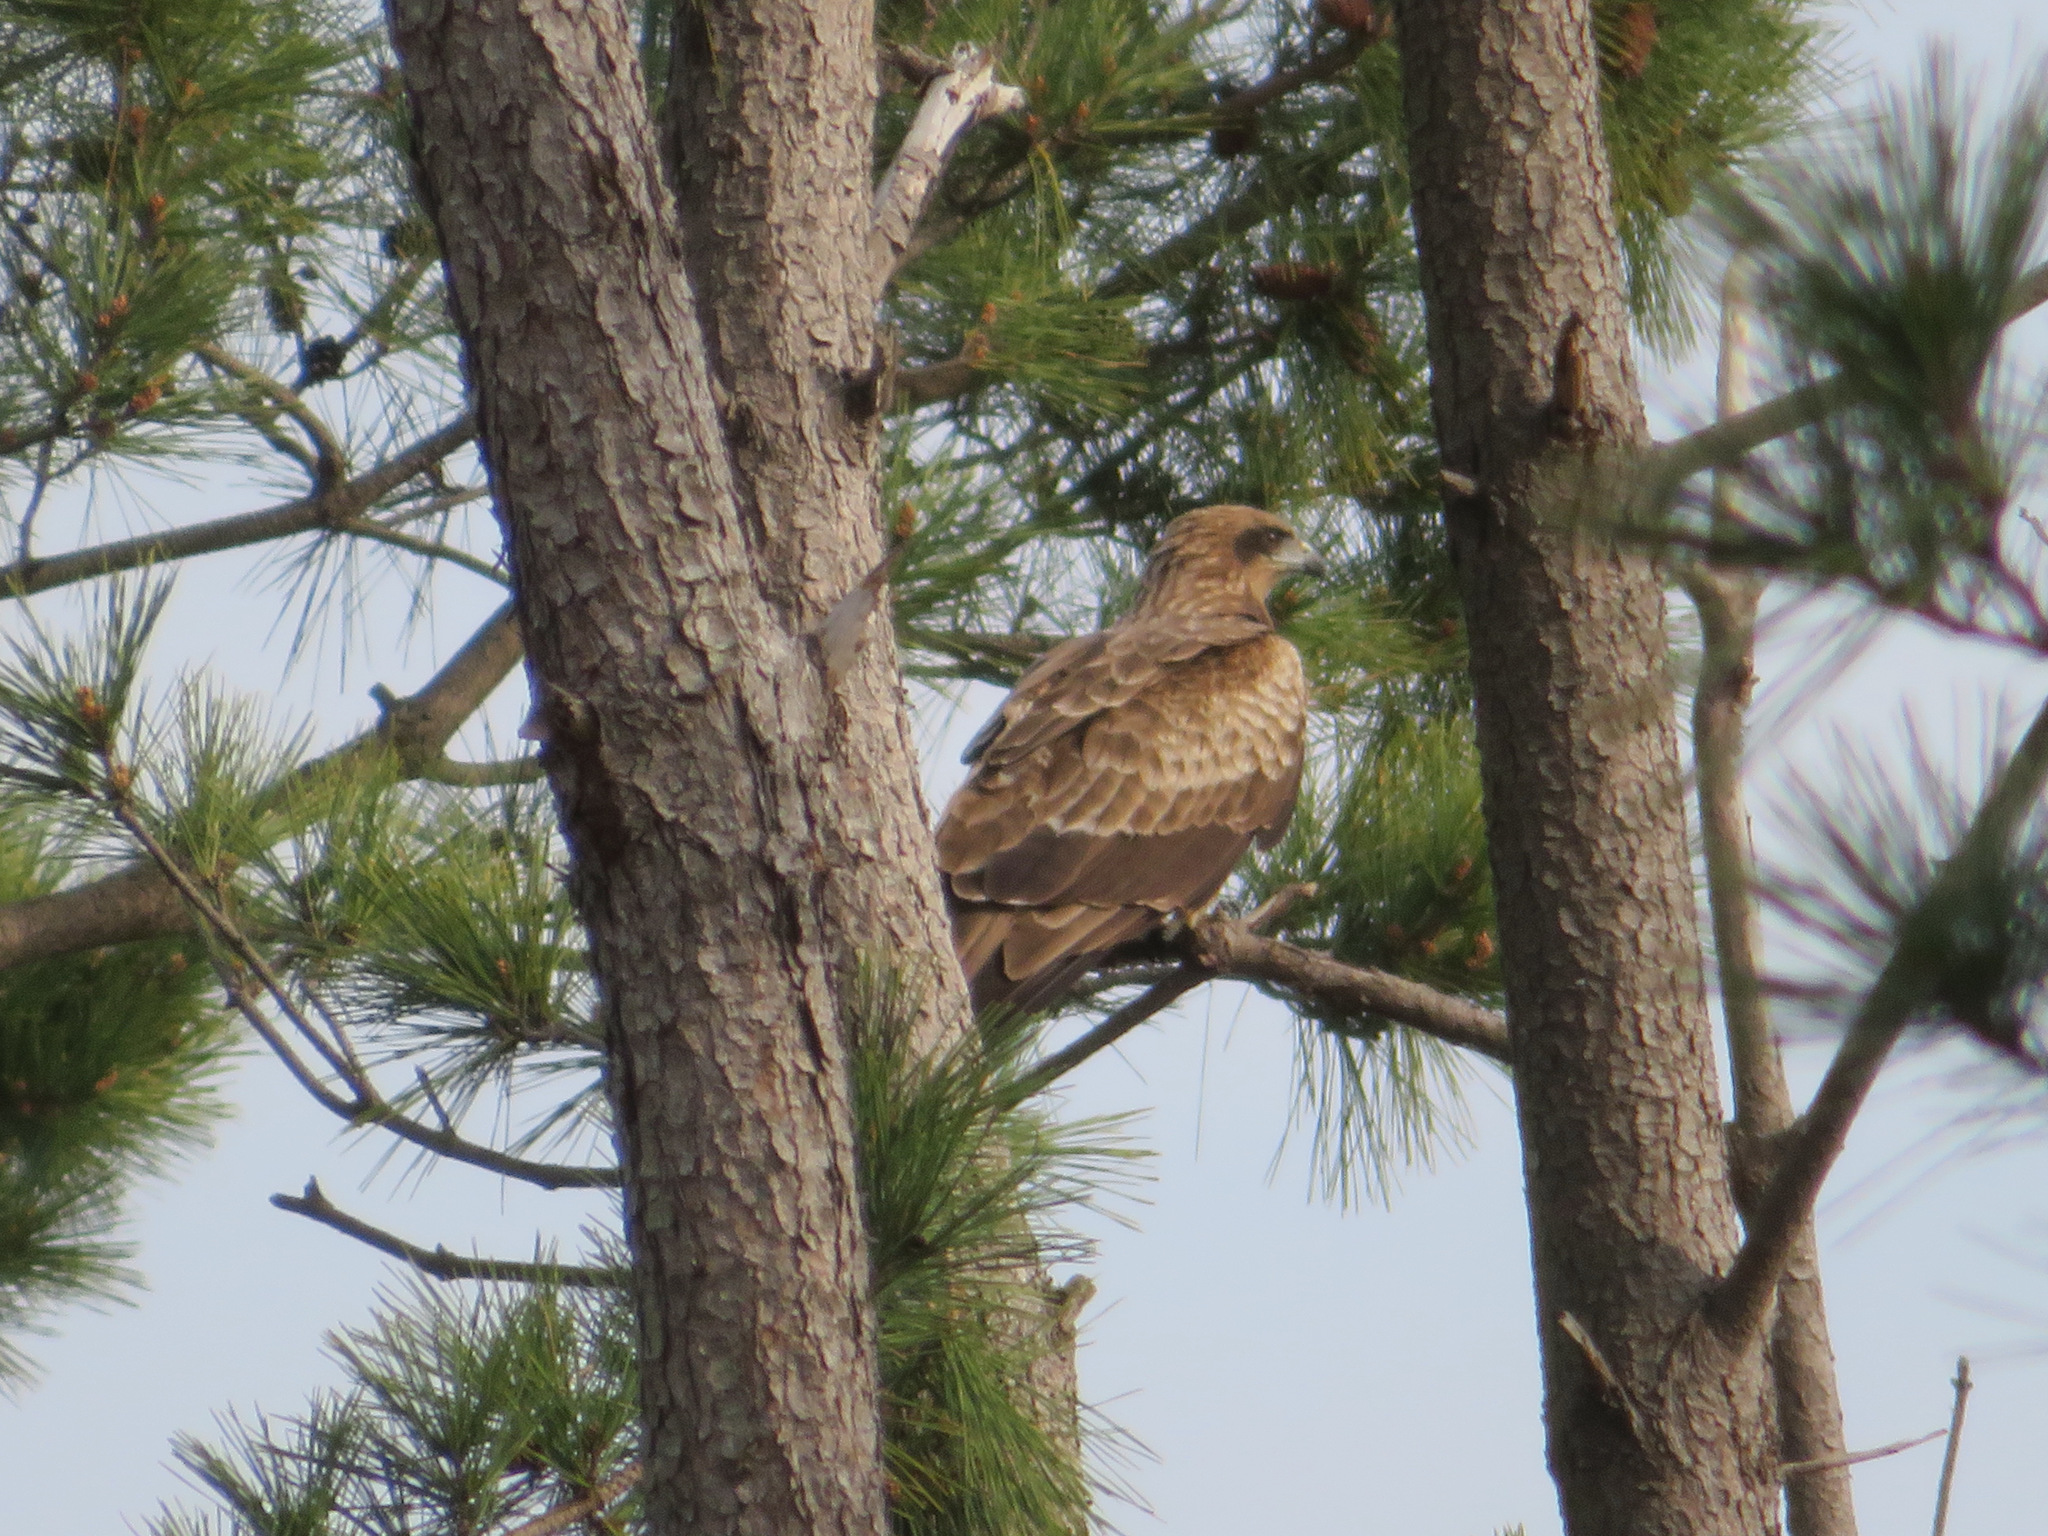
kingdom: Animalia
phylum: Chordata
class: Aves
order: Accipitriformes
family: Accipitridae
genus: Milvus
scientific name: Milvus migrans
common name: Black kite
